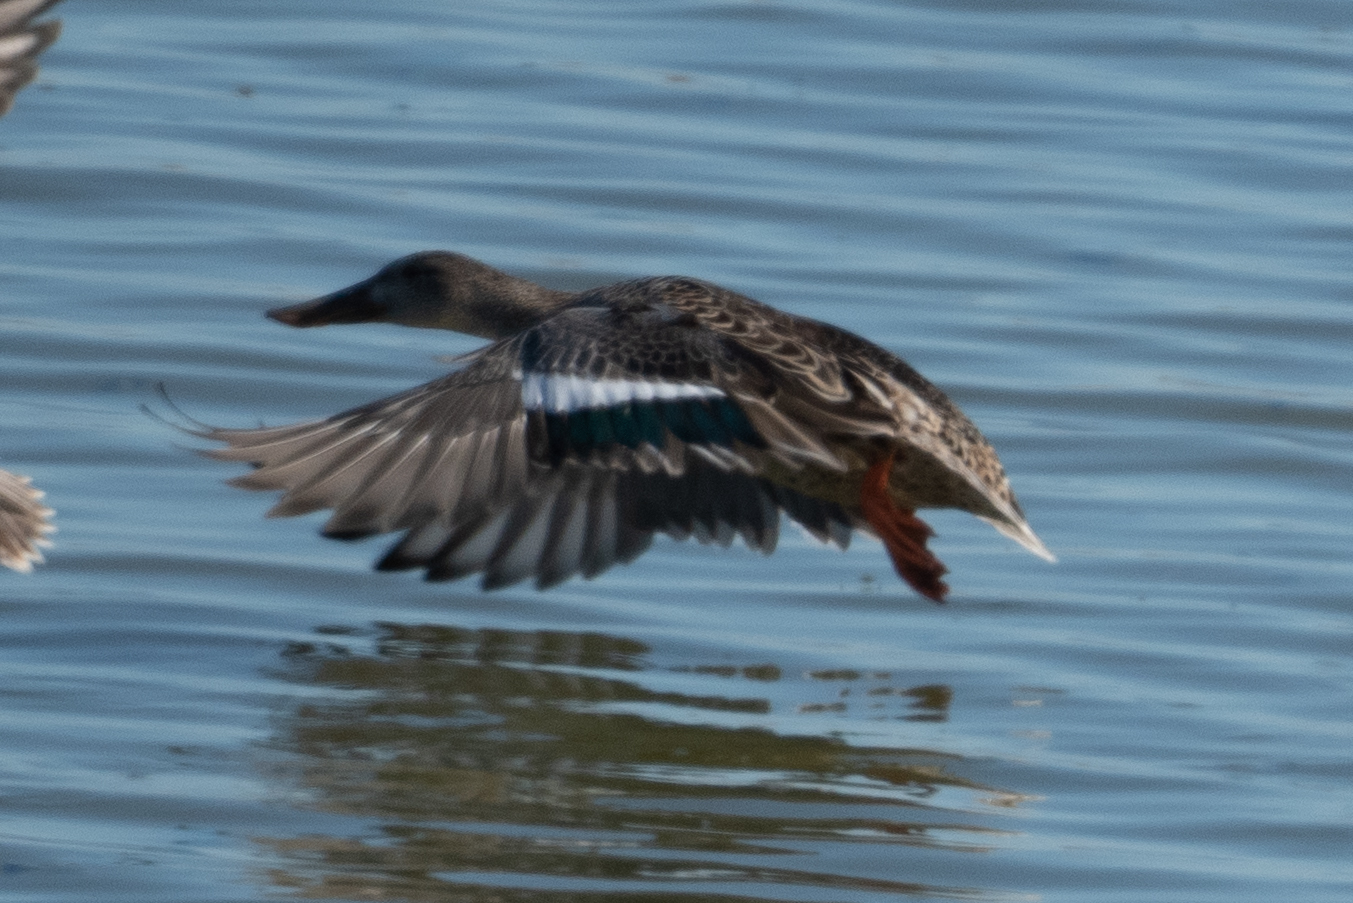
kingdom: Animalia
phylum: Chordata
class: Aves
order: Anseriformes
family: Anatidae
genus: Spatula
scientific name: Spatula clypeata
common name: Northern shoveler
